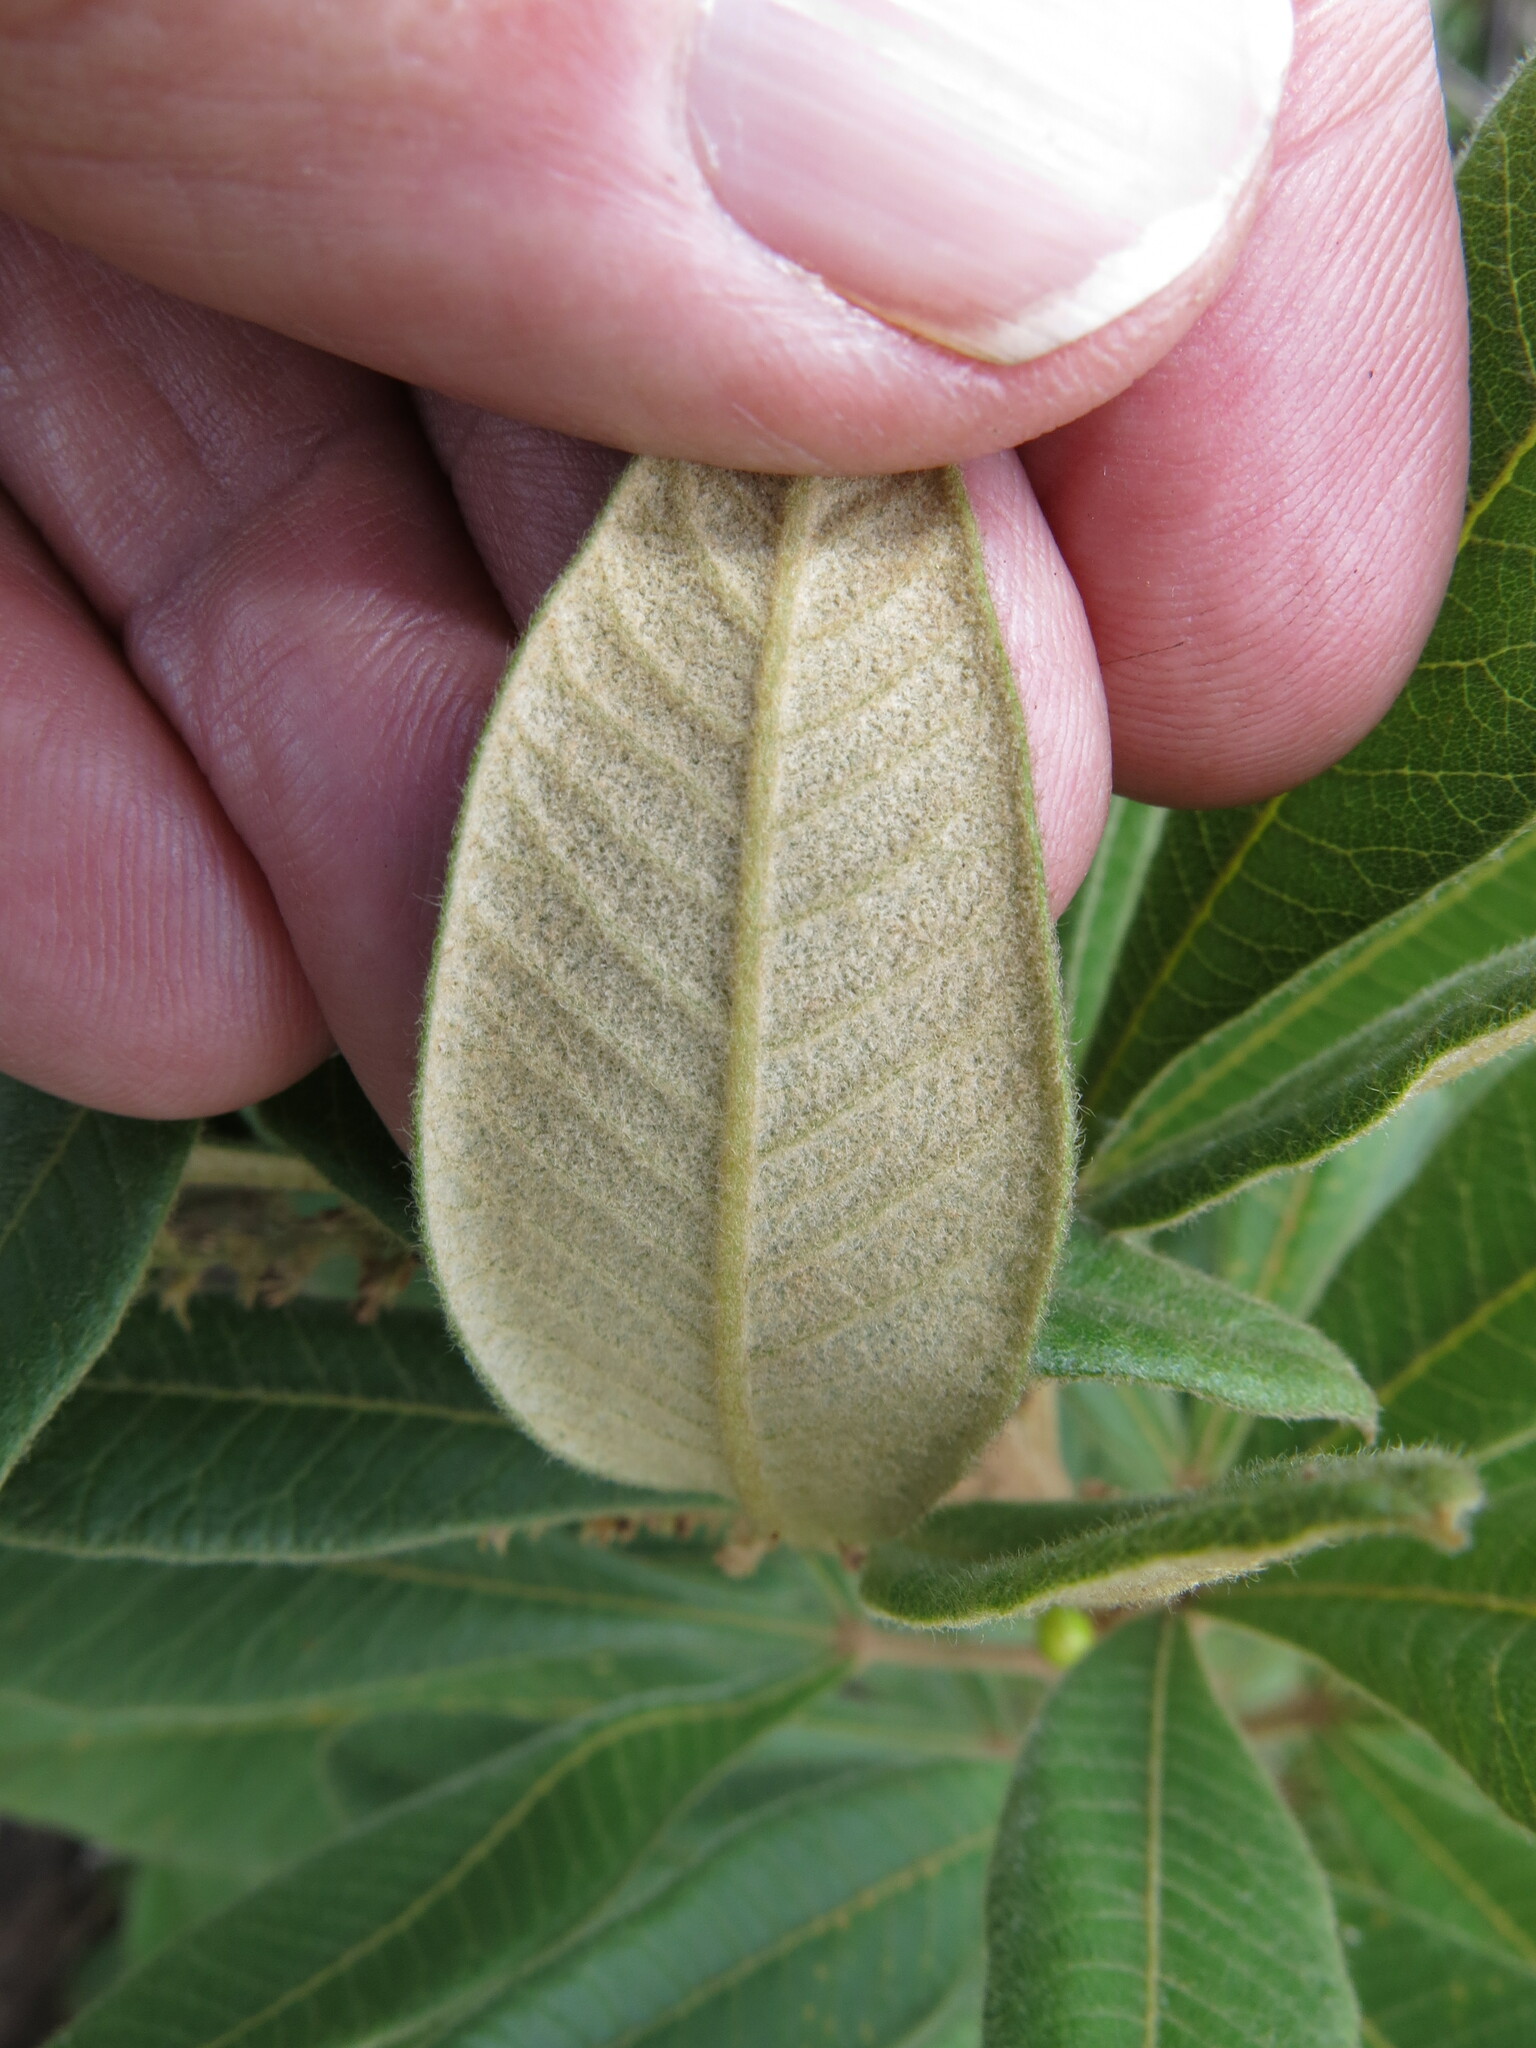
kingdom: Plantae
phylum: Tracheophyta
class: Magnoliopsida
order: Sapindales
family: Anacardiaceae
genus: Searsia
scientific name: Searsia discolor
